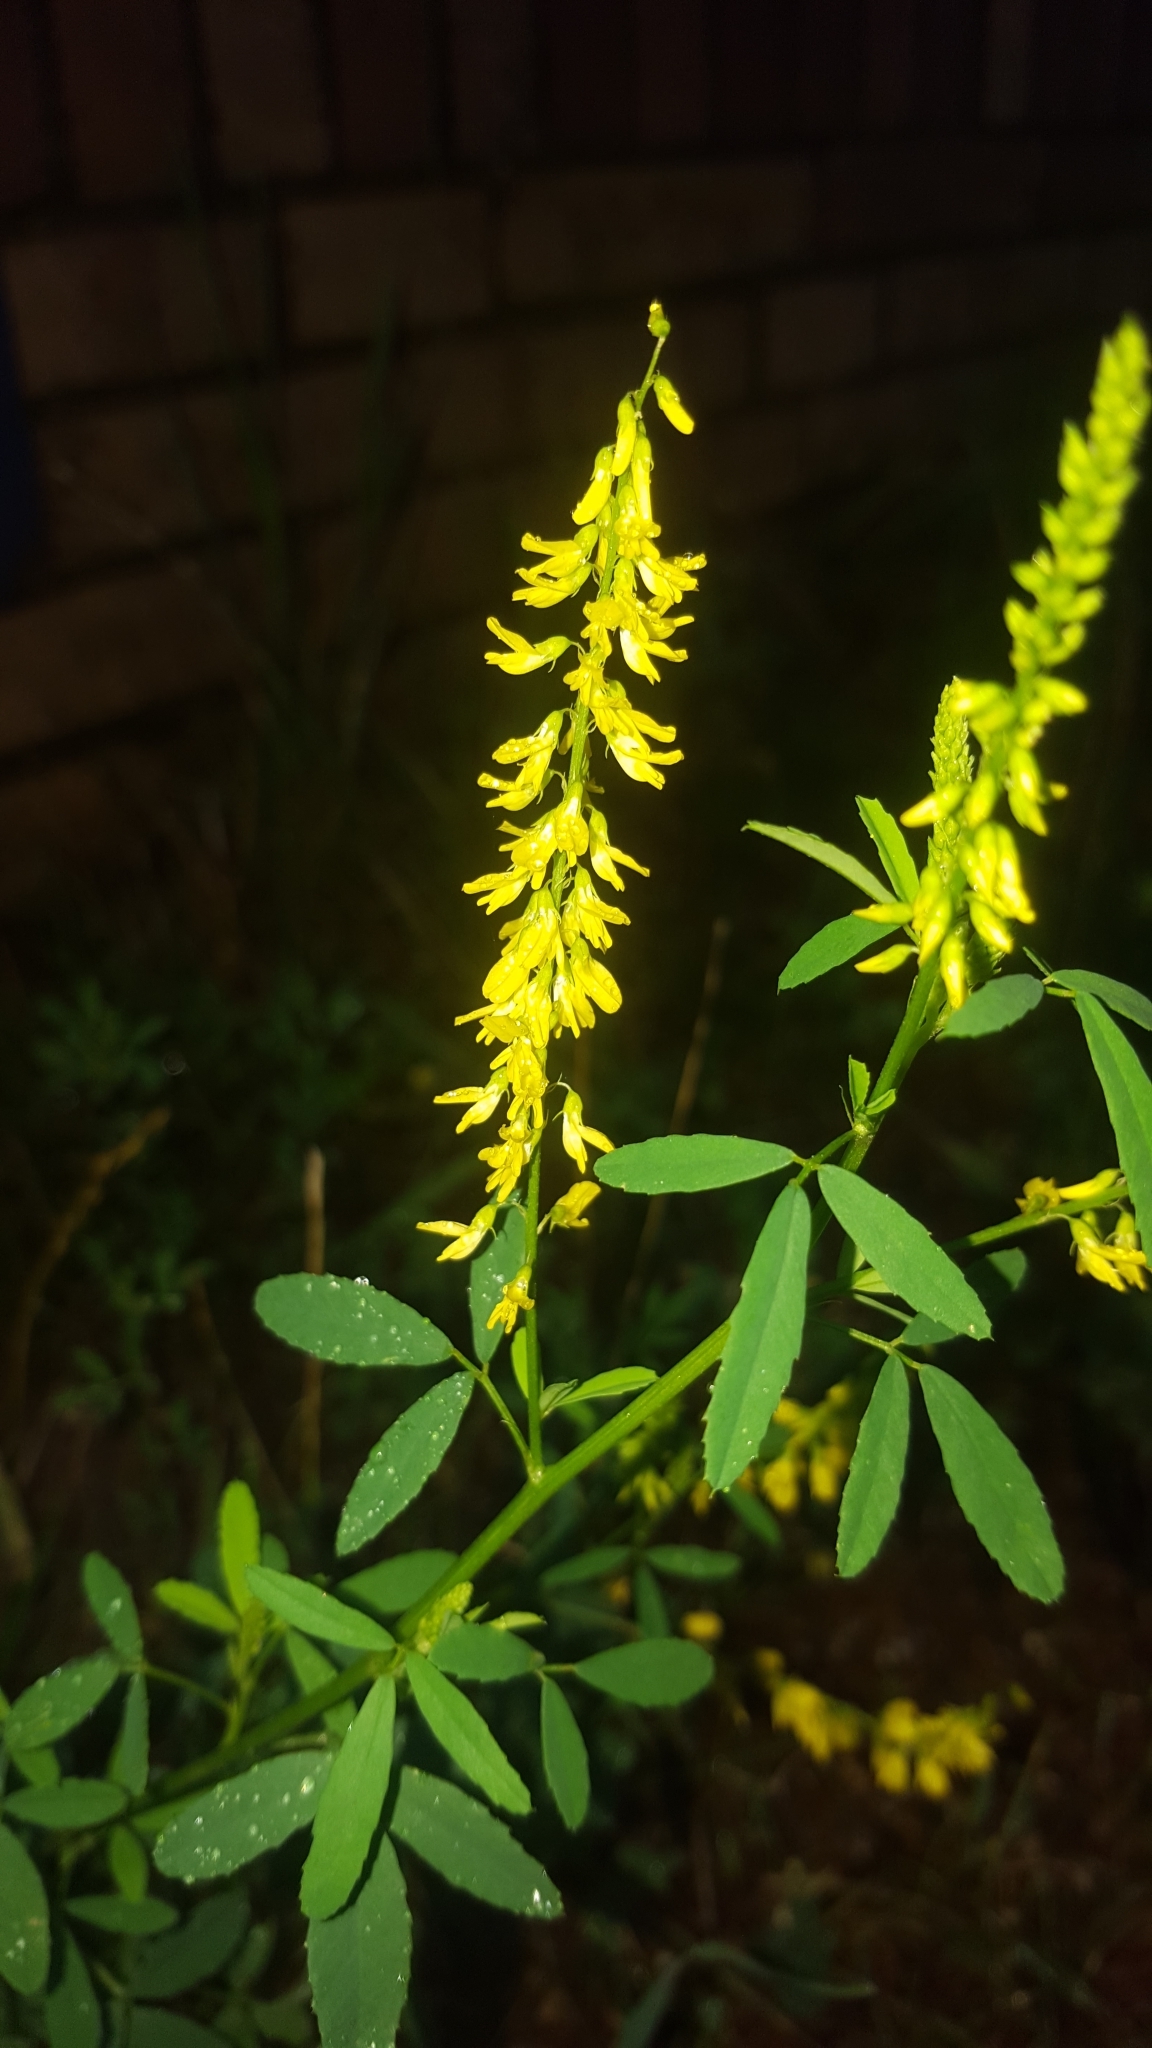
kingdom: Plantae
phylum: Tracheophyta
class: Magnoliopsida
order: Fabales
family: Fabaceae
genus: Melilotus
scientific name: Melilotus officinalis
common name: Sweetclover
